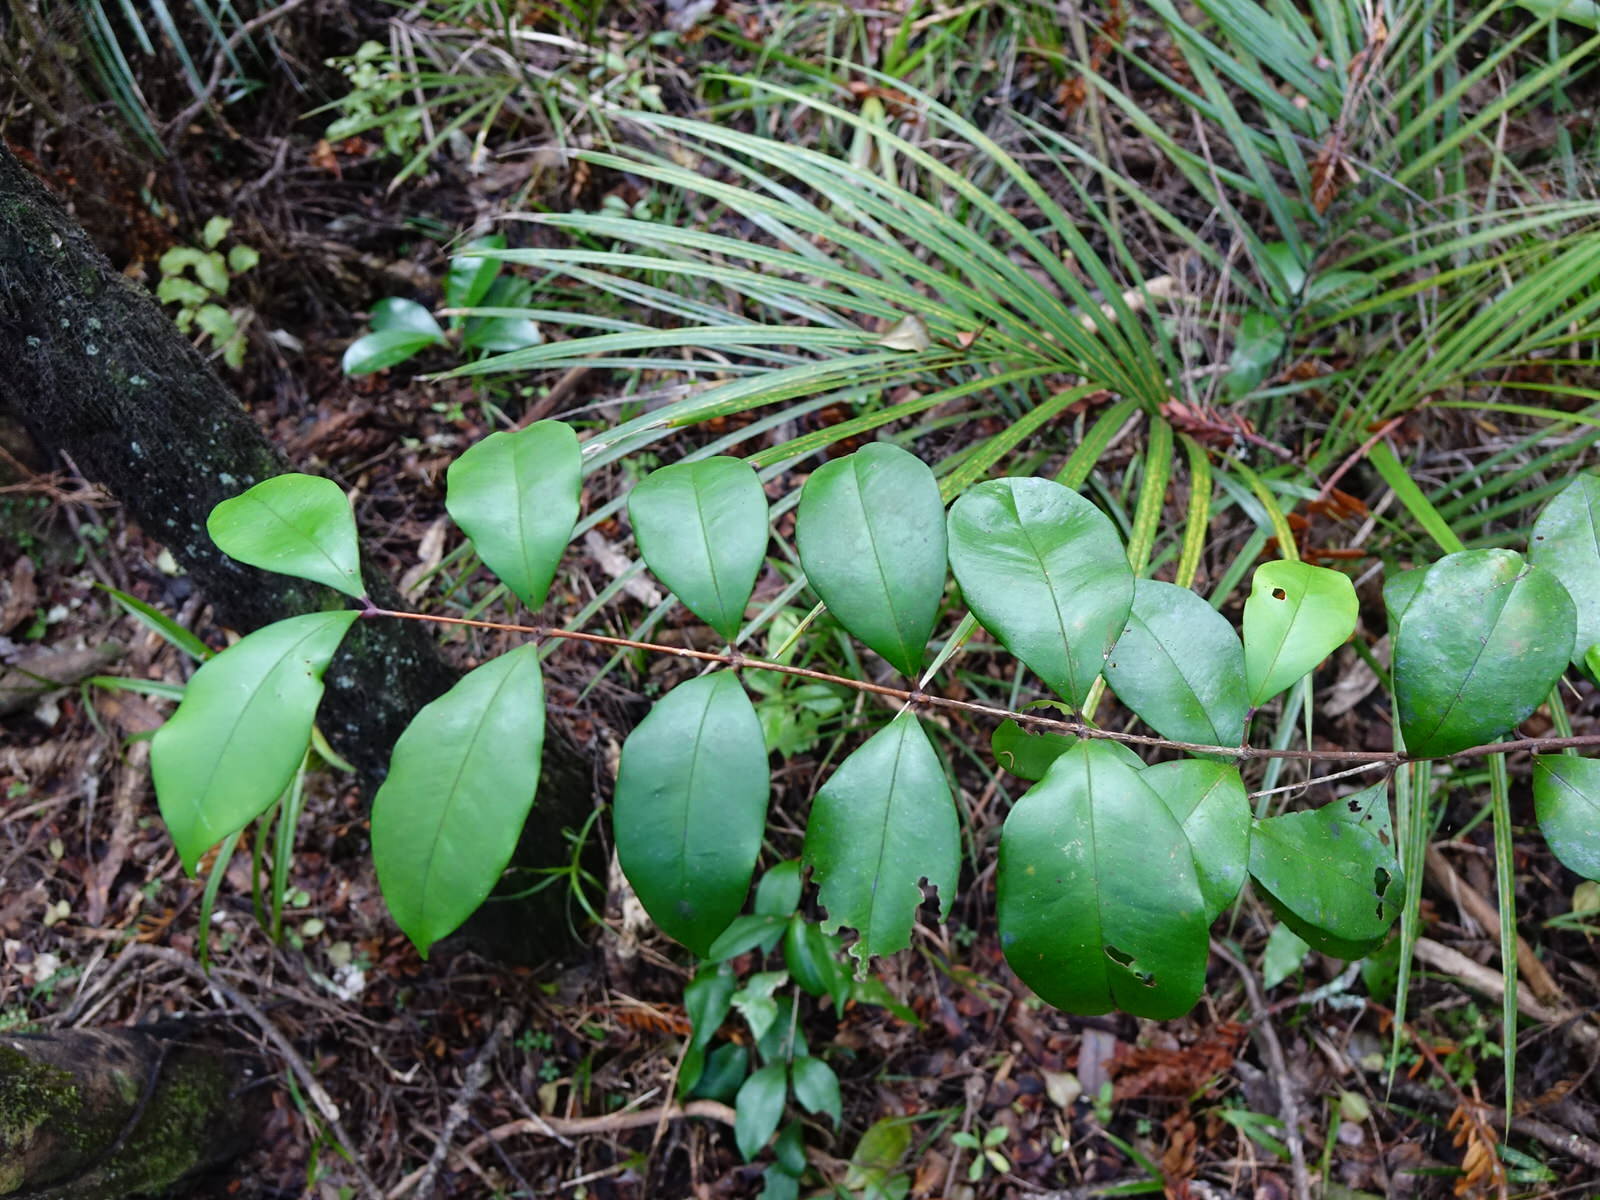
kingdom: Plantae
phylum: Tracheophyta
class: Magnoliopsida
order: Myrtales
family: Myrtaceae
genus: Syzygium
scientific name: Syzygium smithii
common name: Lilly-pilly
